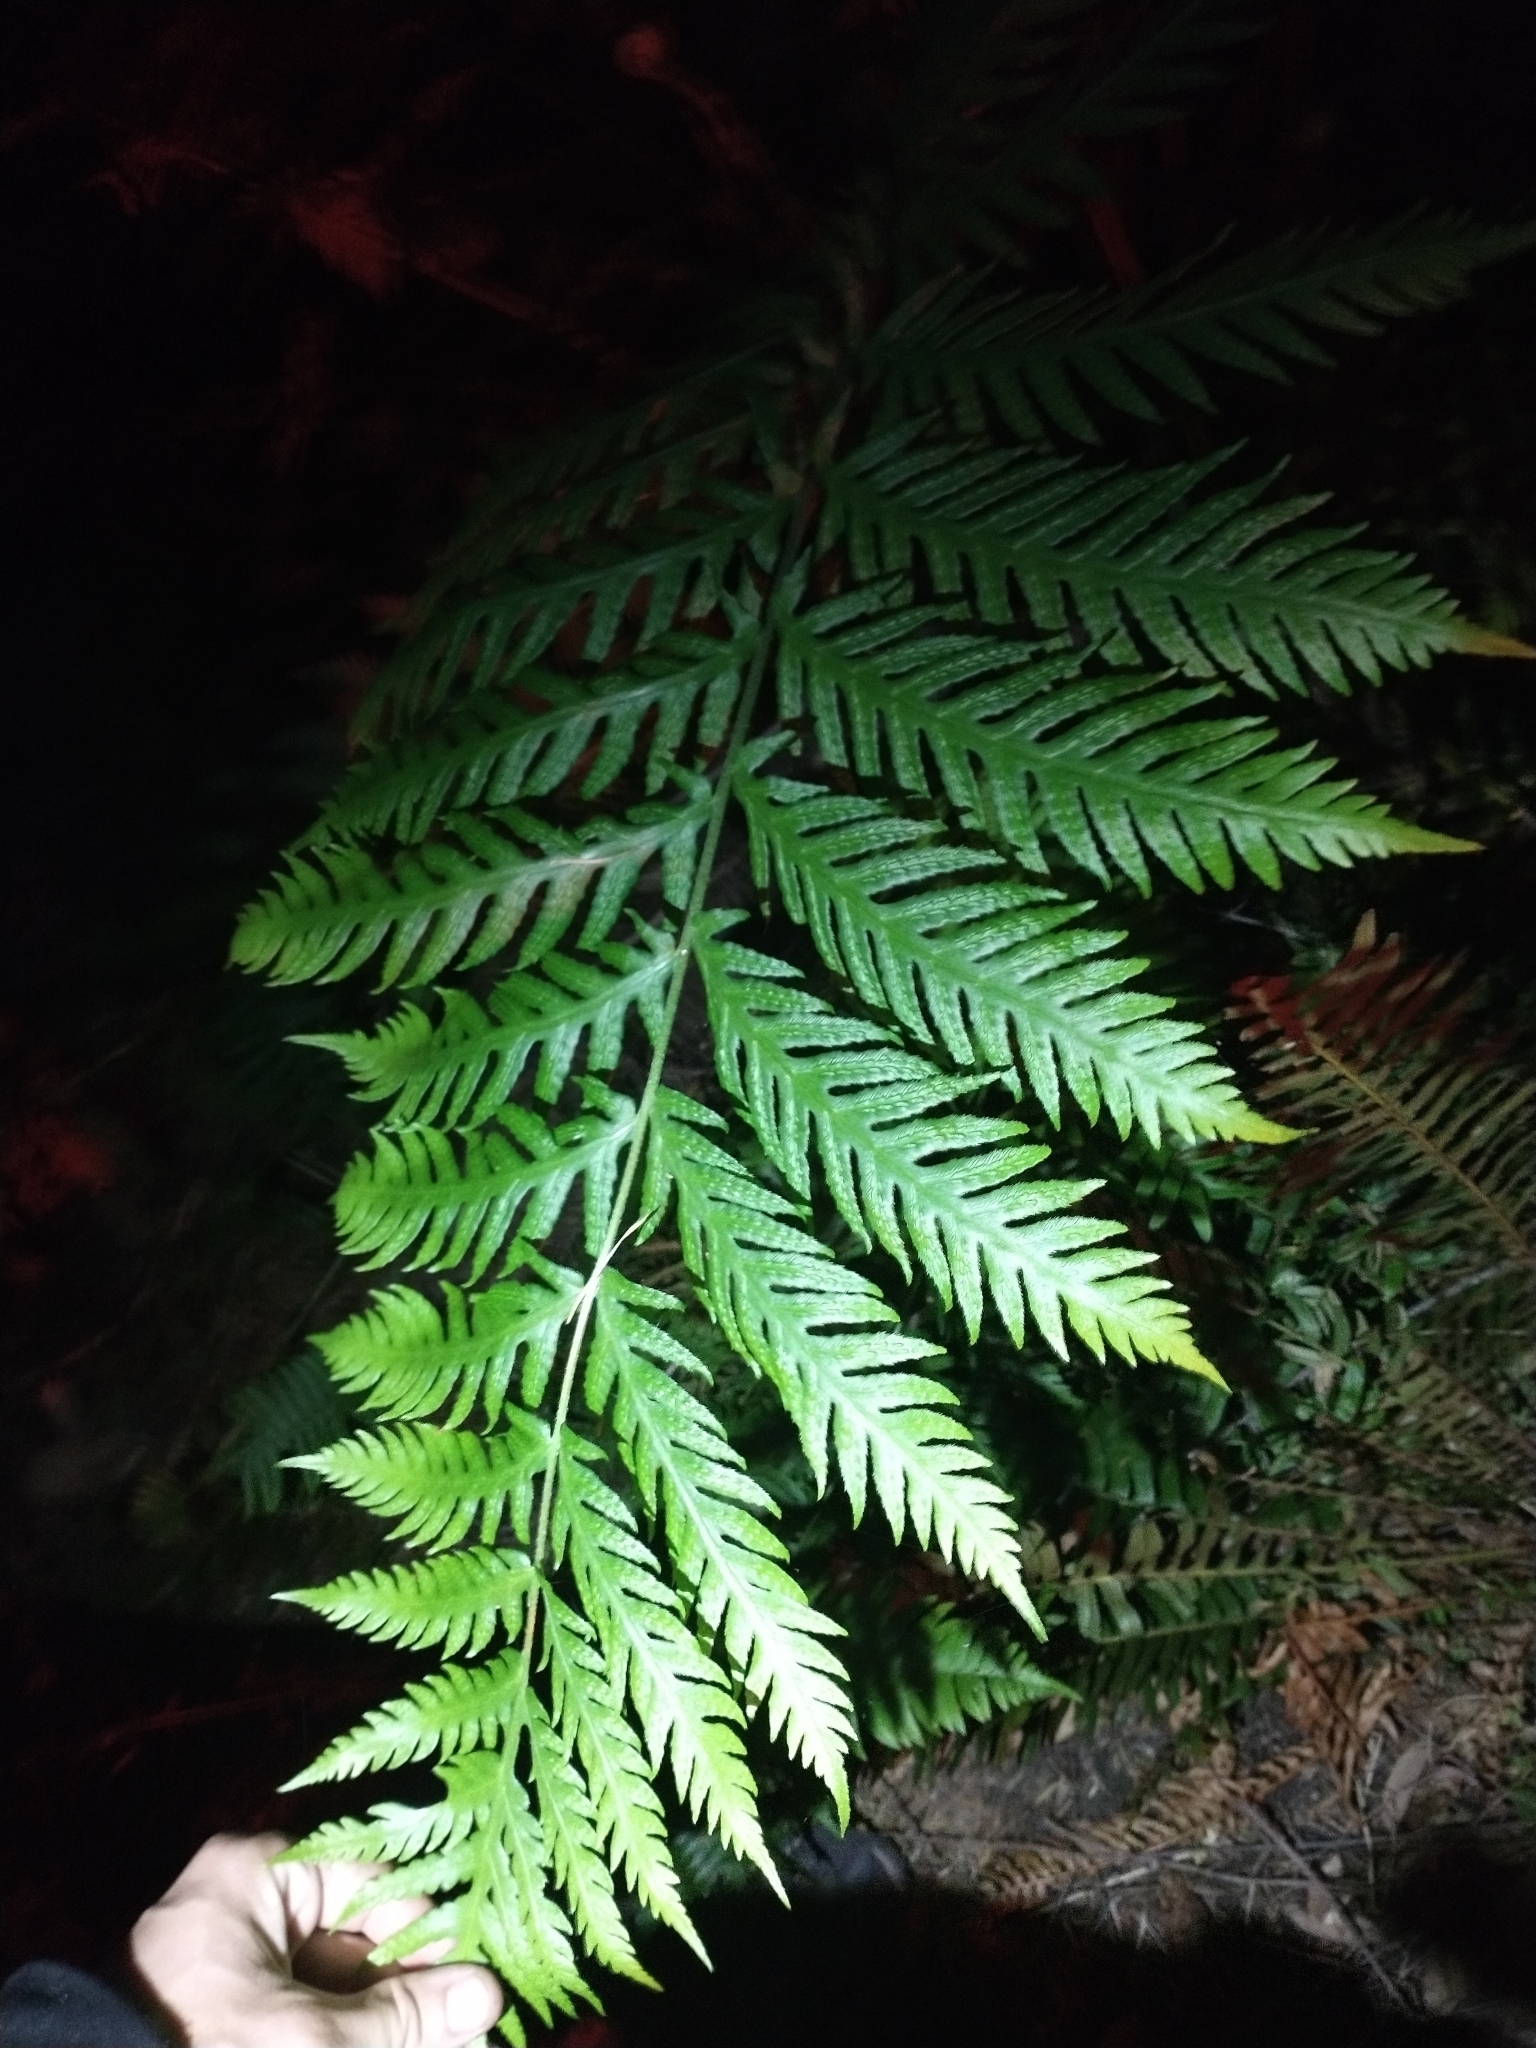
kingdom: Plantae
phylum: Tracheophyta
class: Polypodiopsida
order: Polypodiales
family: Blechnaceae
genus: Woodwardia
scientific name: Woodwardia fimbriata
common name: Giant chain fern
